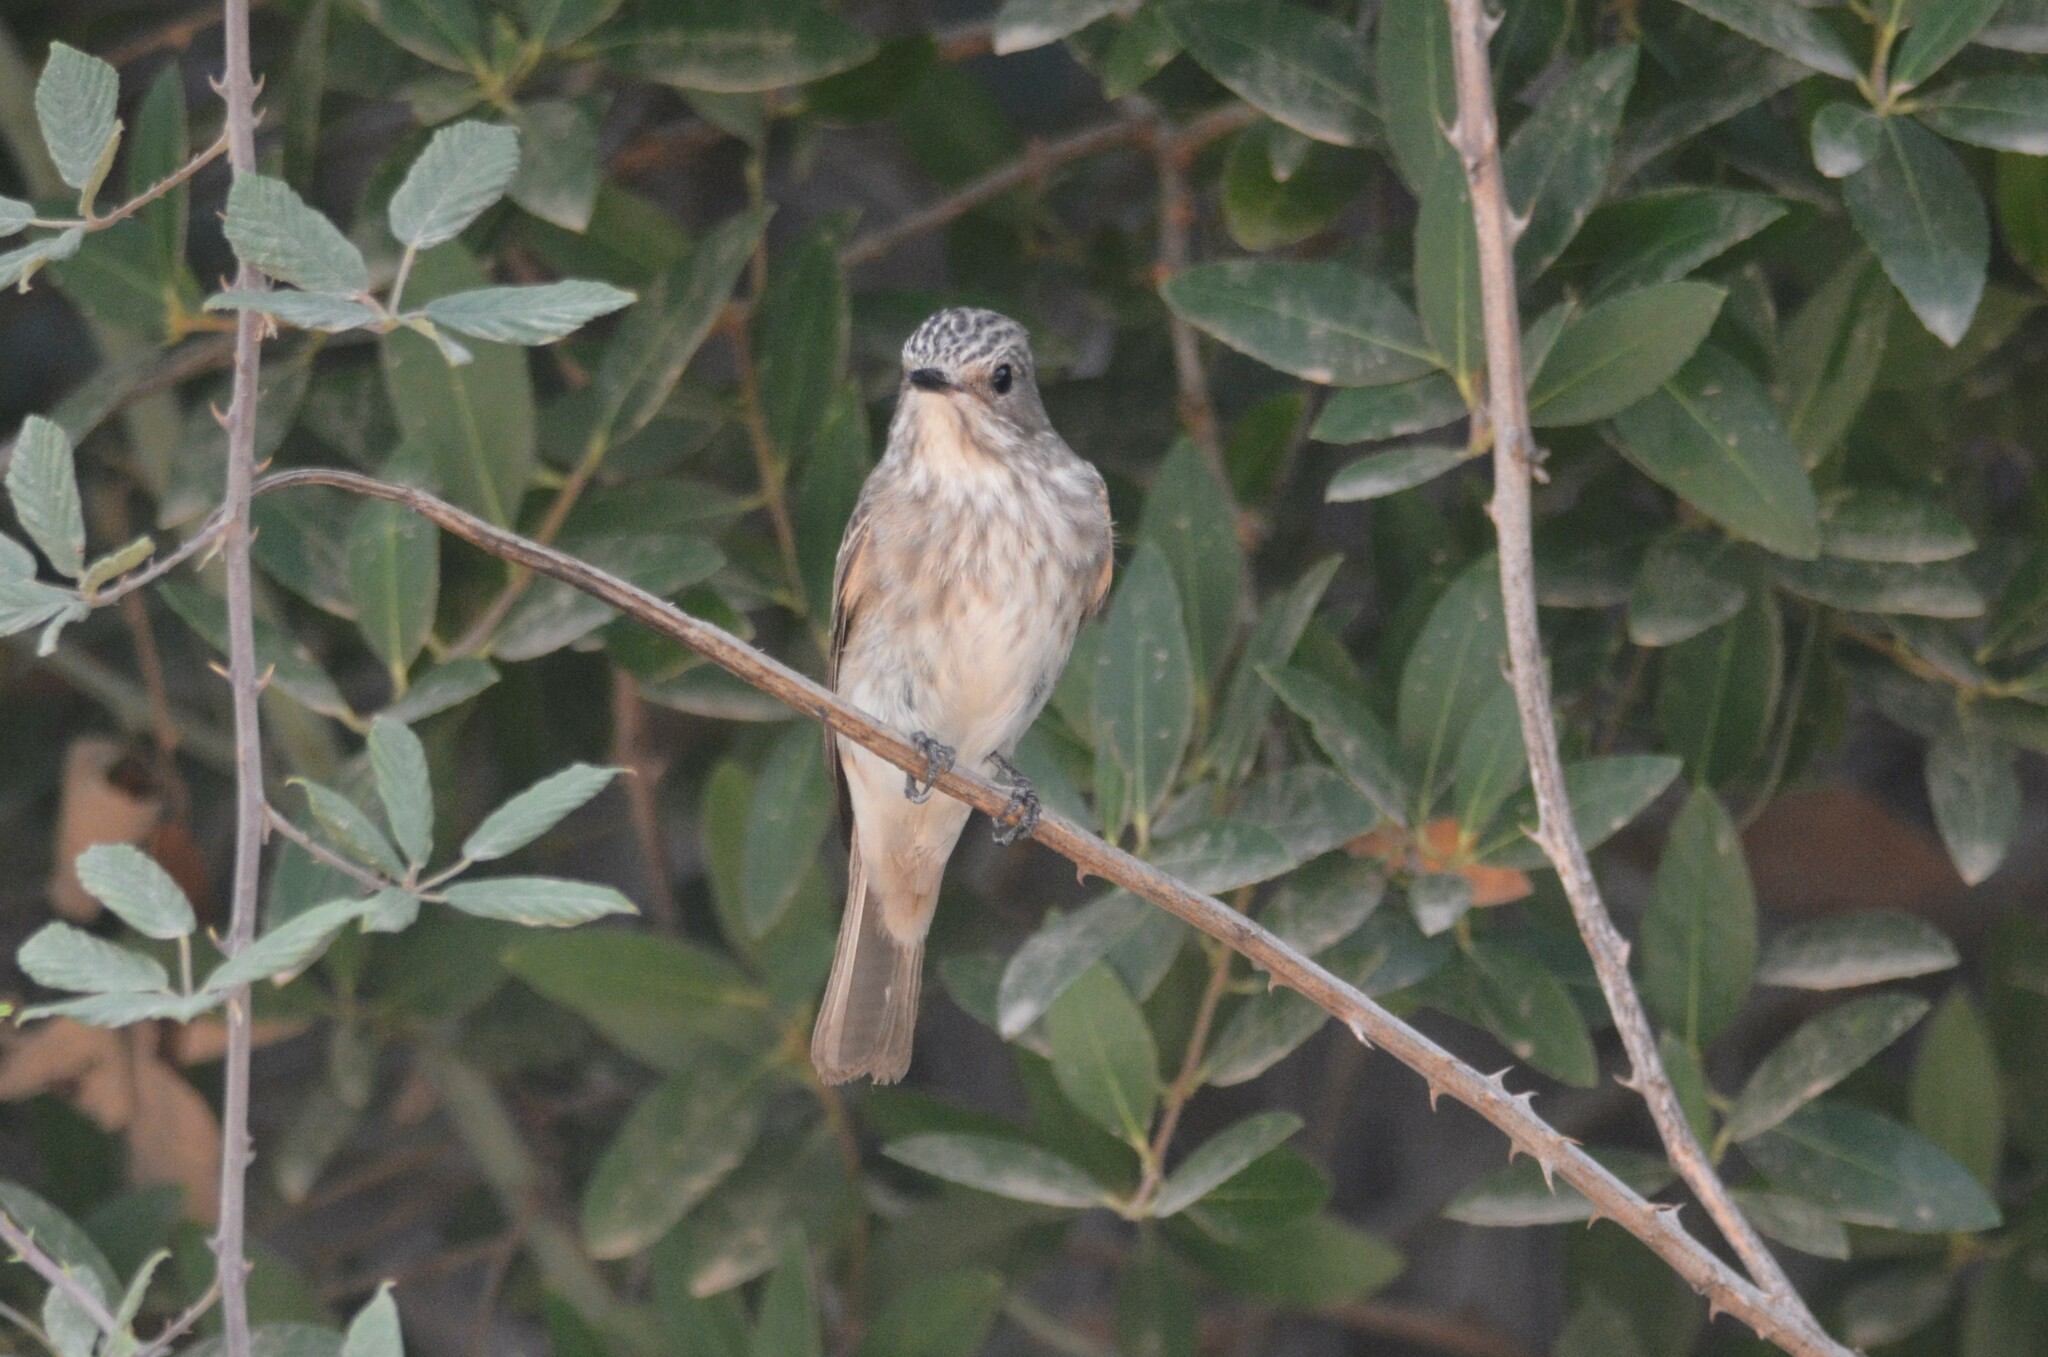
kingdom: Animalia
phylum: Chordata
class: Aves
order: Passeriformes
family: Muscicapidae
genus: Muscicapa
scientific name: Muscicapa striata
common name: Spotted flycatcher
